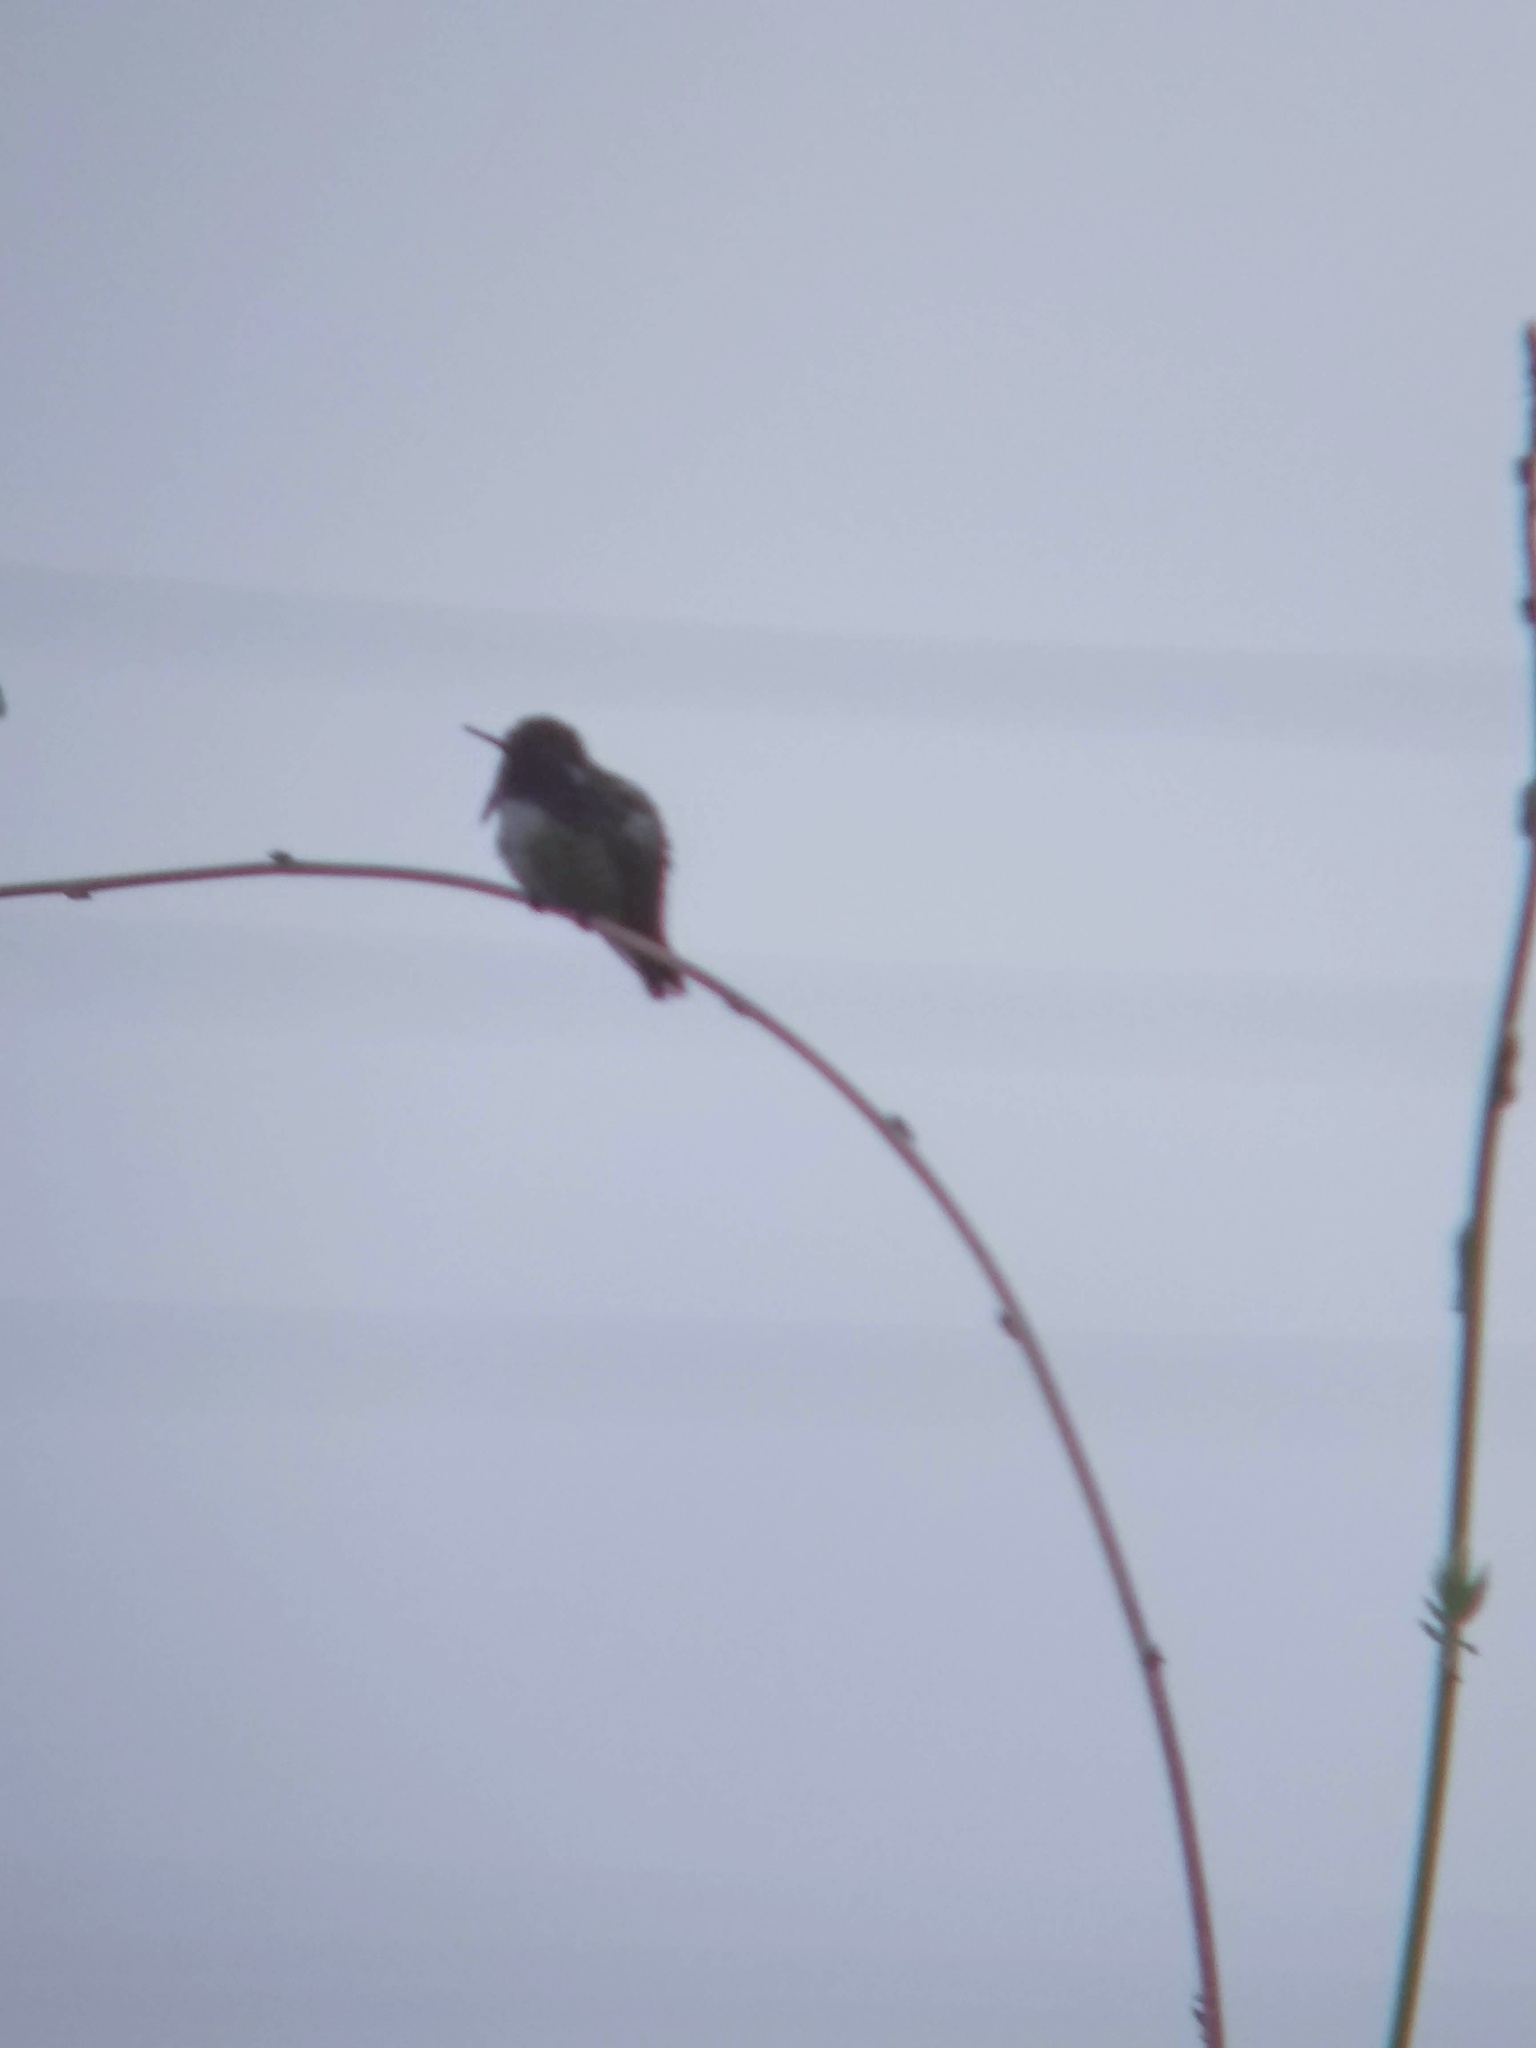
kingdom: Animalia
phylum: Chordata
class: Aves
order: Apodiformes
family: Trochilidae
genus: Calypte
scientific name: Calypte costae
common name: Costa's hummingbird
